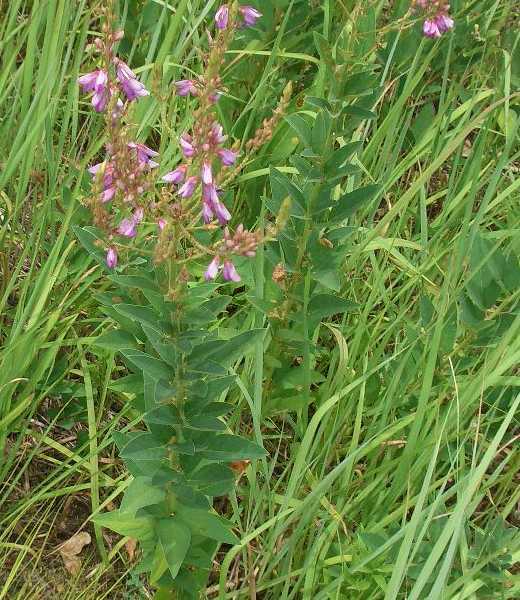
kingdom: Plantae
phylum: Tracheophyta
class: Magnoliopsida
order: Fabales
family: Fabaceae
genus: Desmodium
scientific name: Desmodium canadense
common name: Canada tick-trefoil
